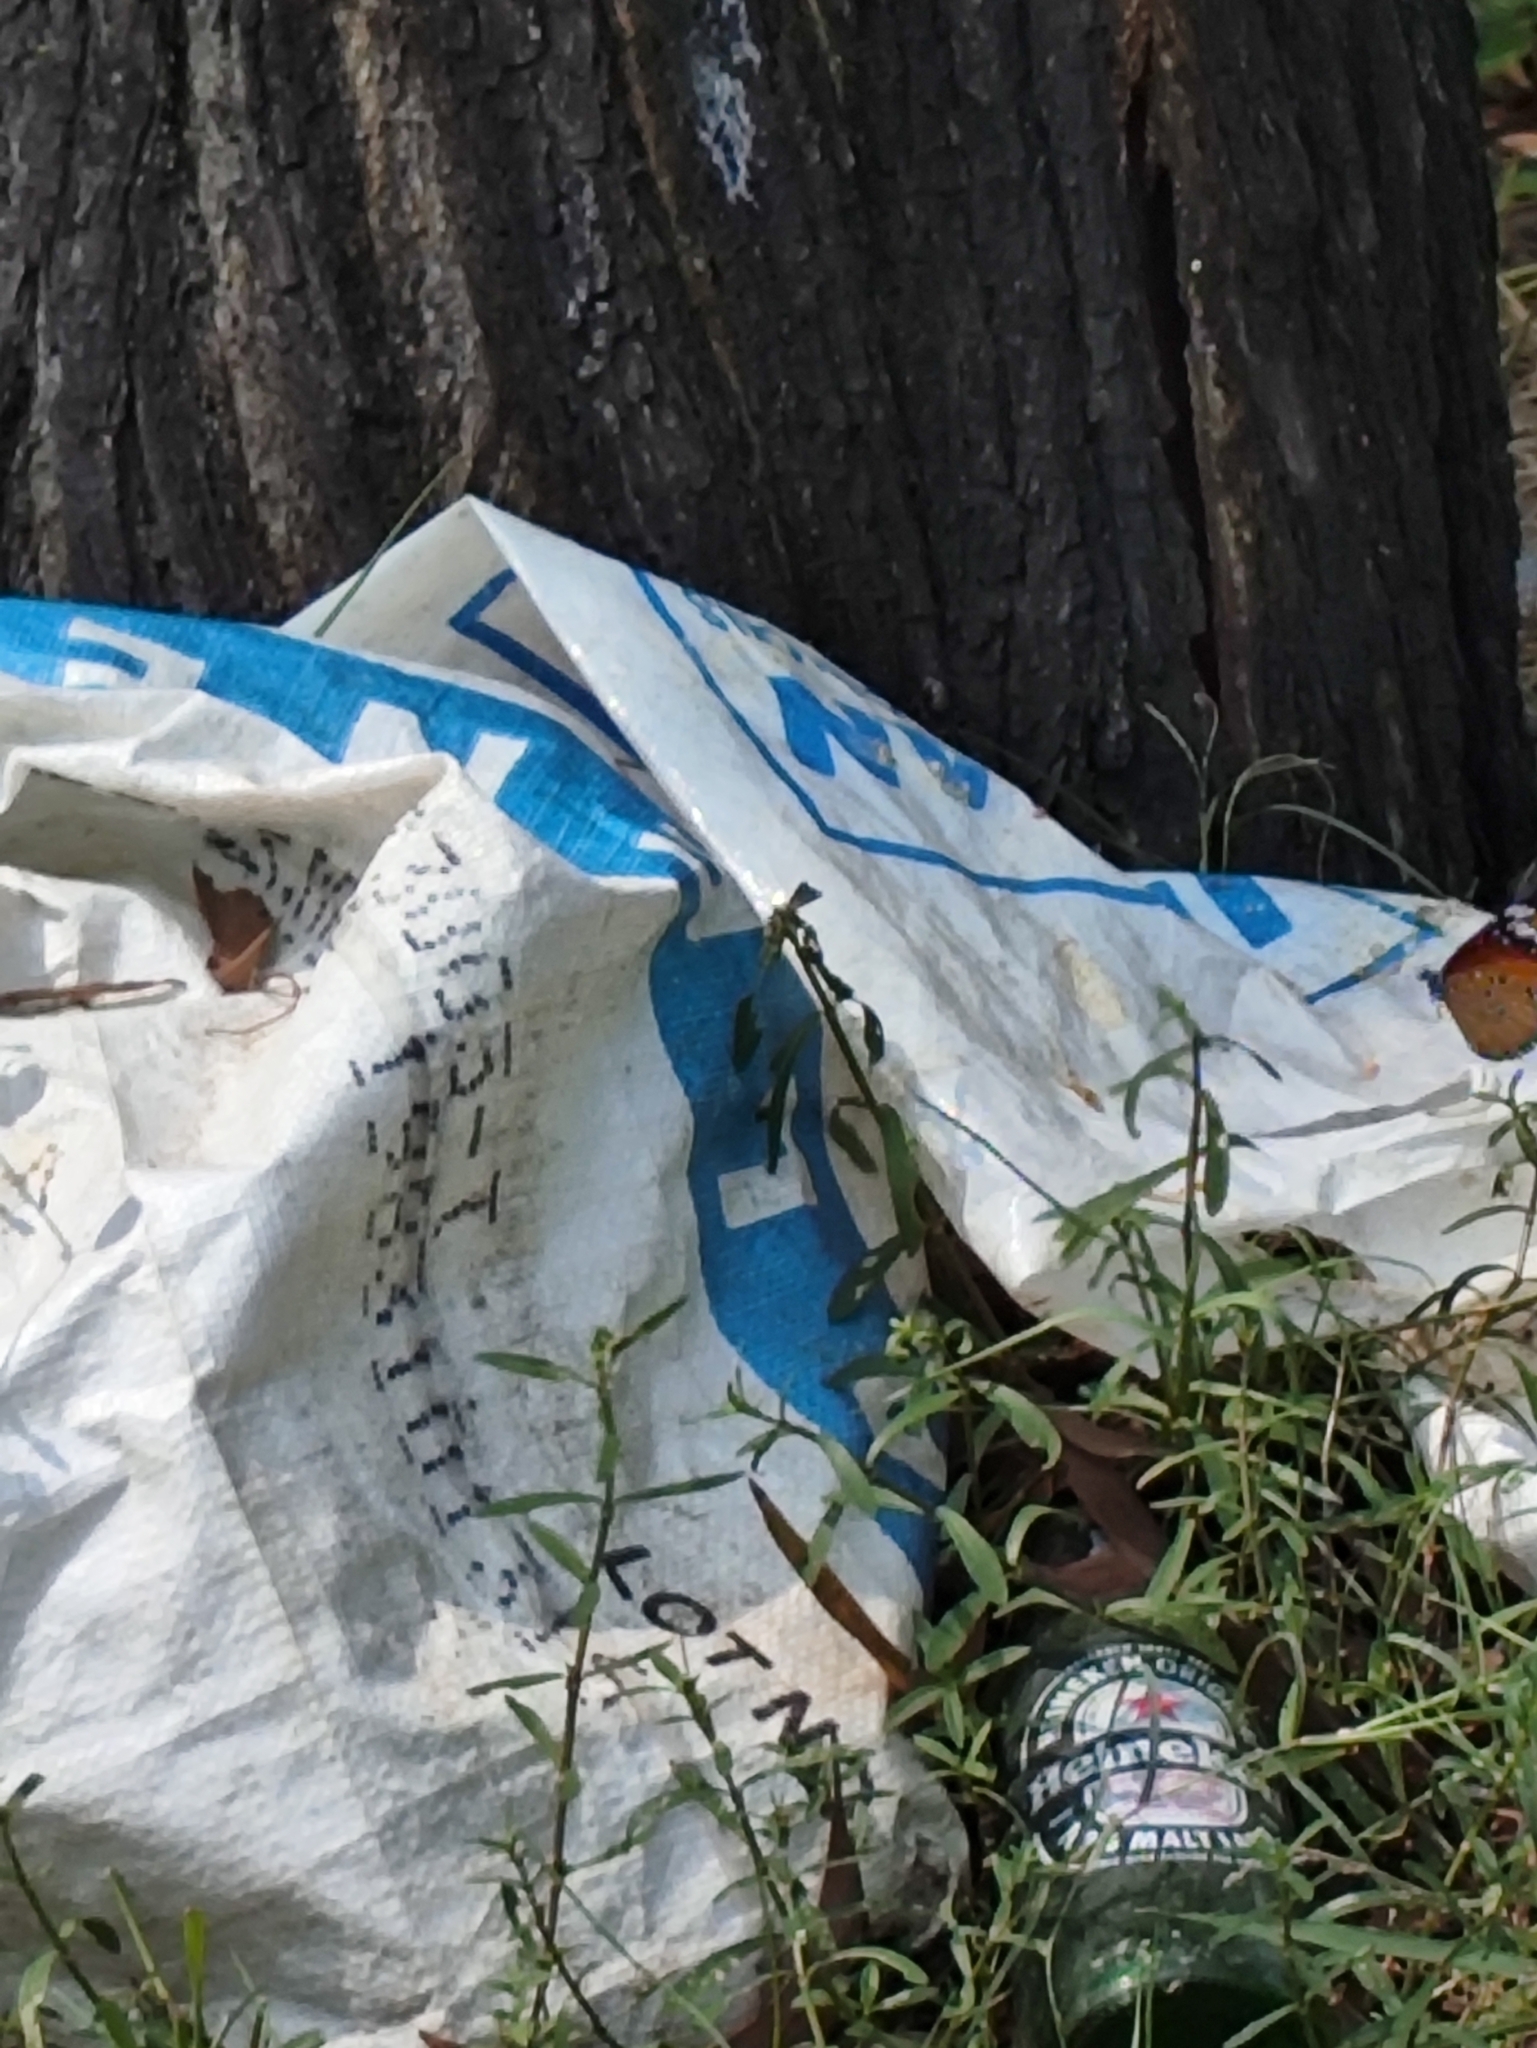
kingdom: Animalia
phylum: Arthropoda
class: Insecta
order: Lepidoptera
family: Nymphalidae
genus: Danaus
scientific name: Danaus chrysippus
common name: Plain tiger
